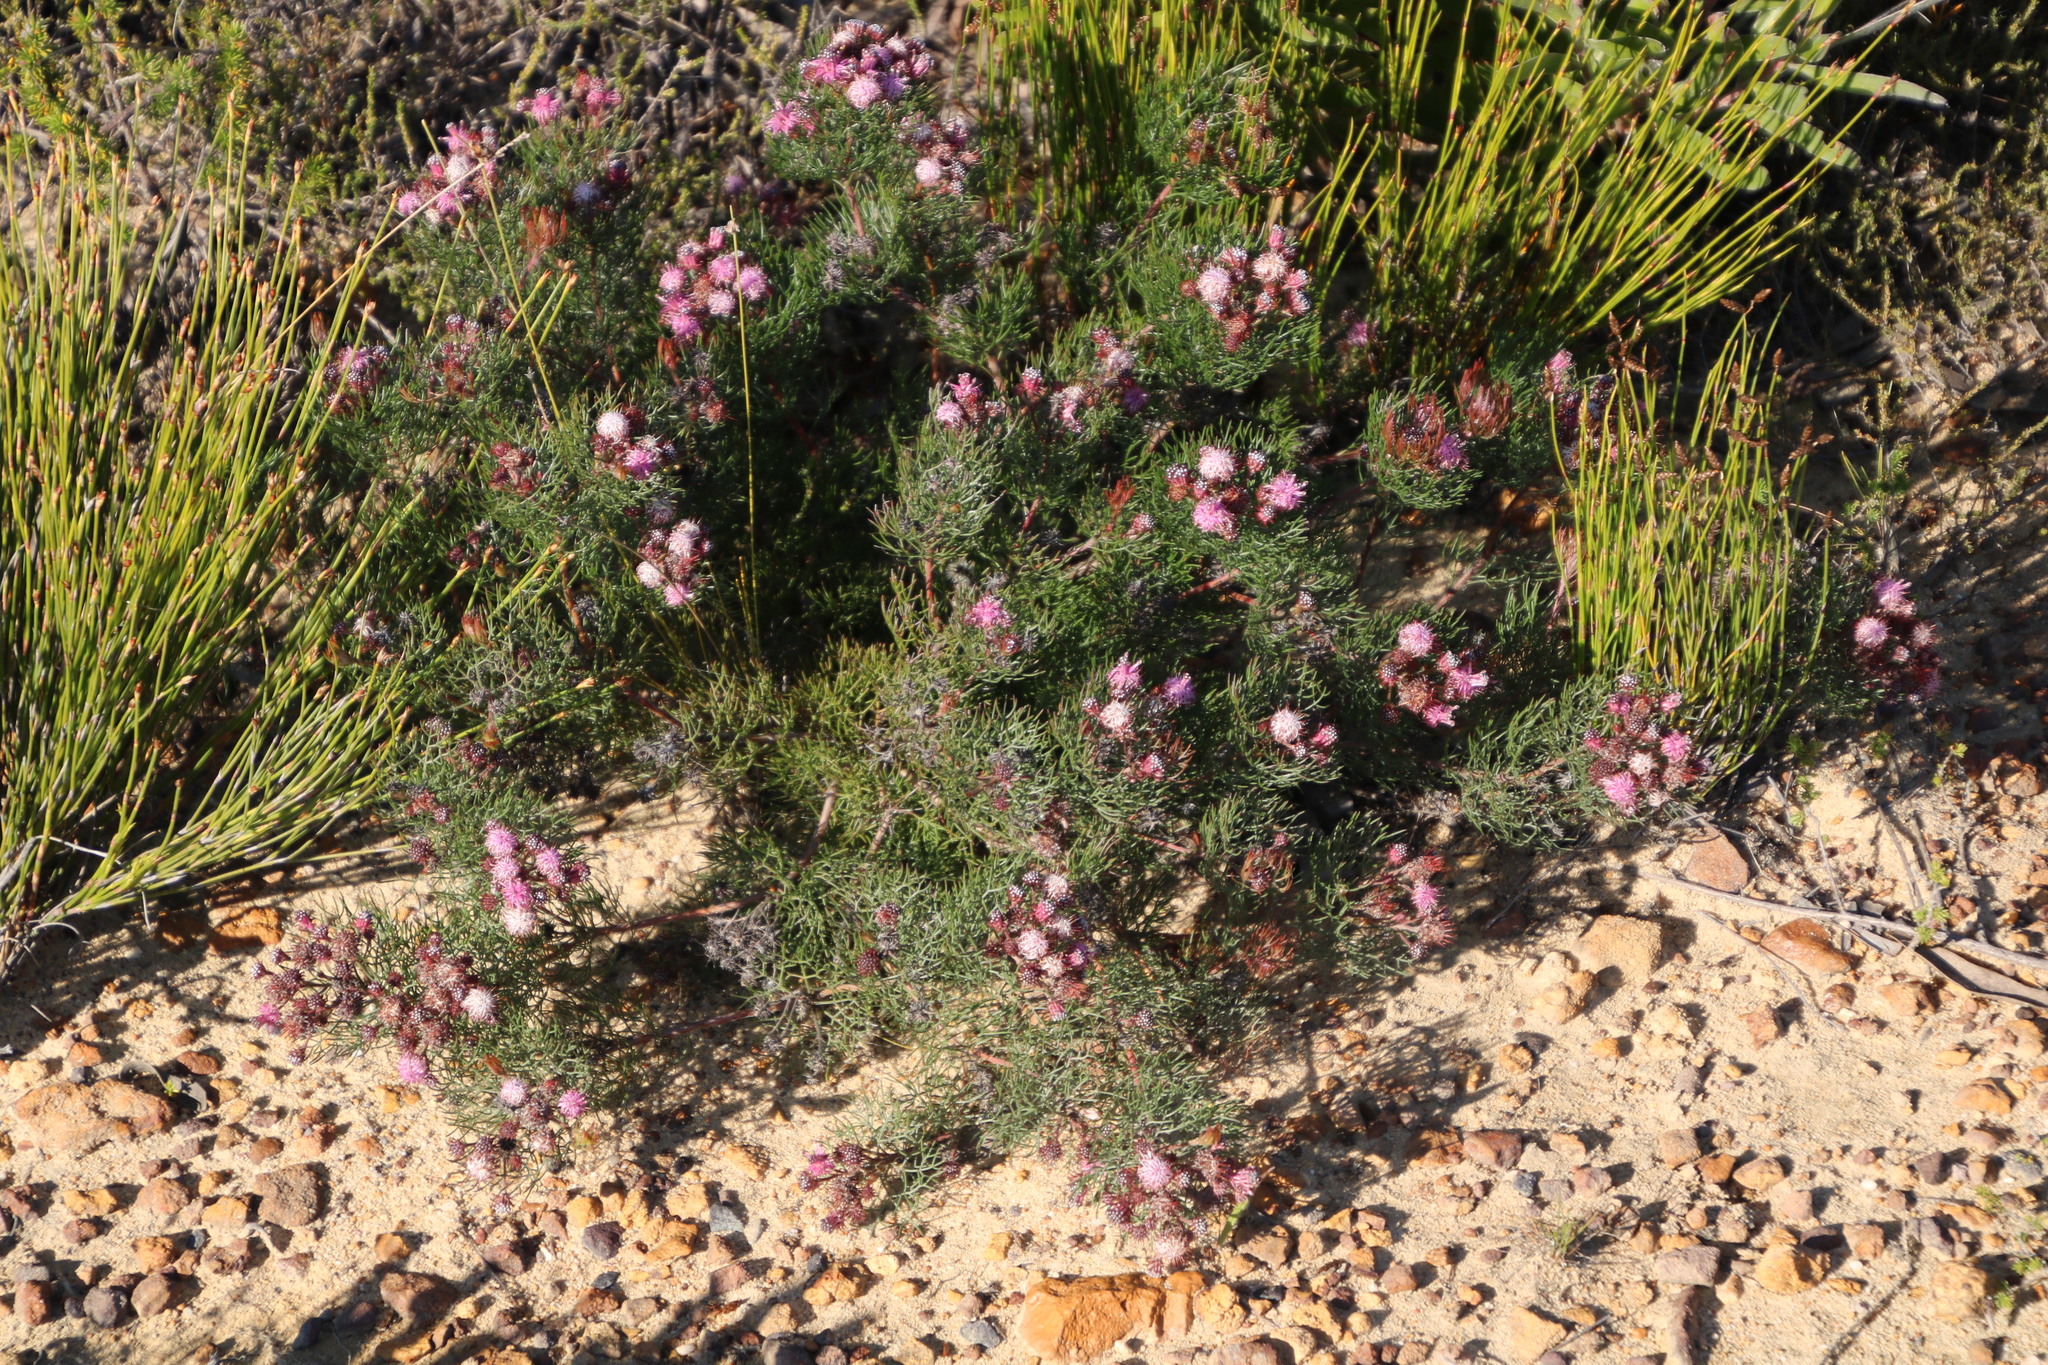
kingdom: Plantae
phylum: Tracheophyta
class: Magnoliopsida
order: Proteales
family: Proteaceae
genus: Serruria
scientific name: Serruria fasciflora
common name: Common pin spiderhead
